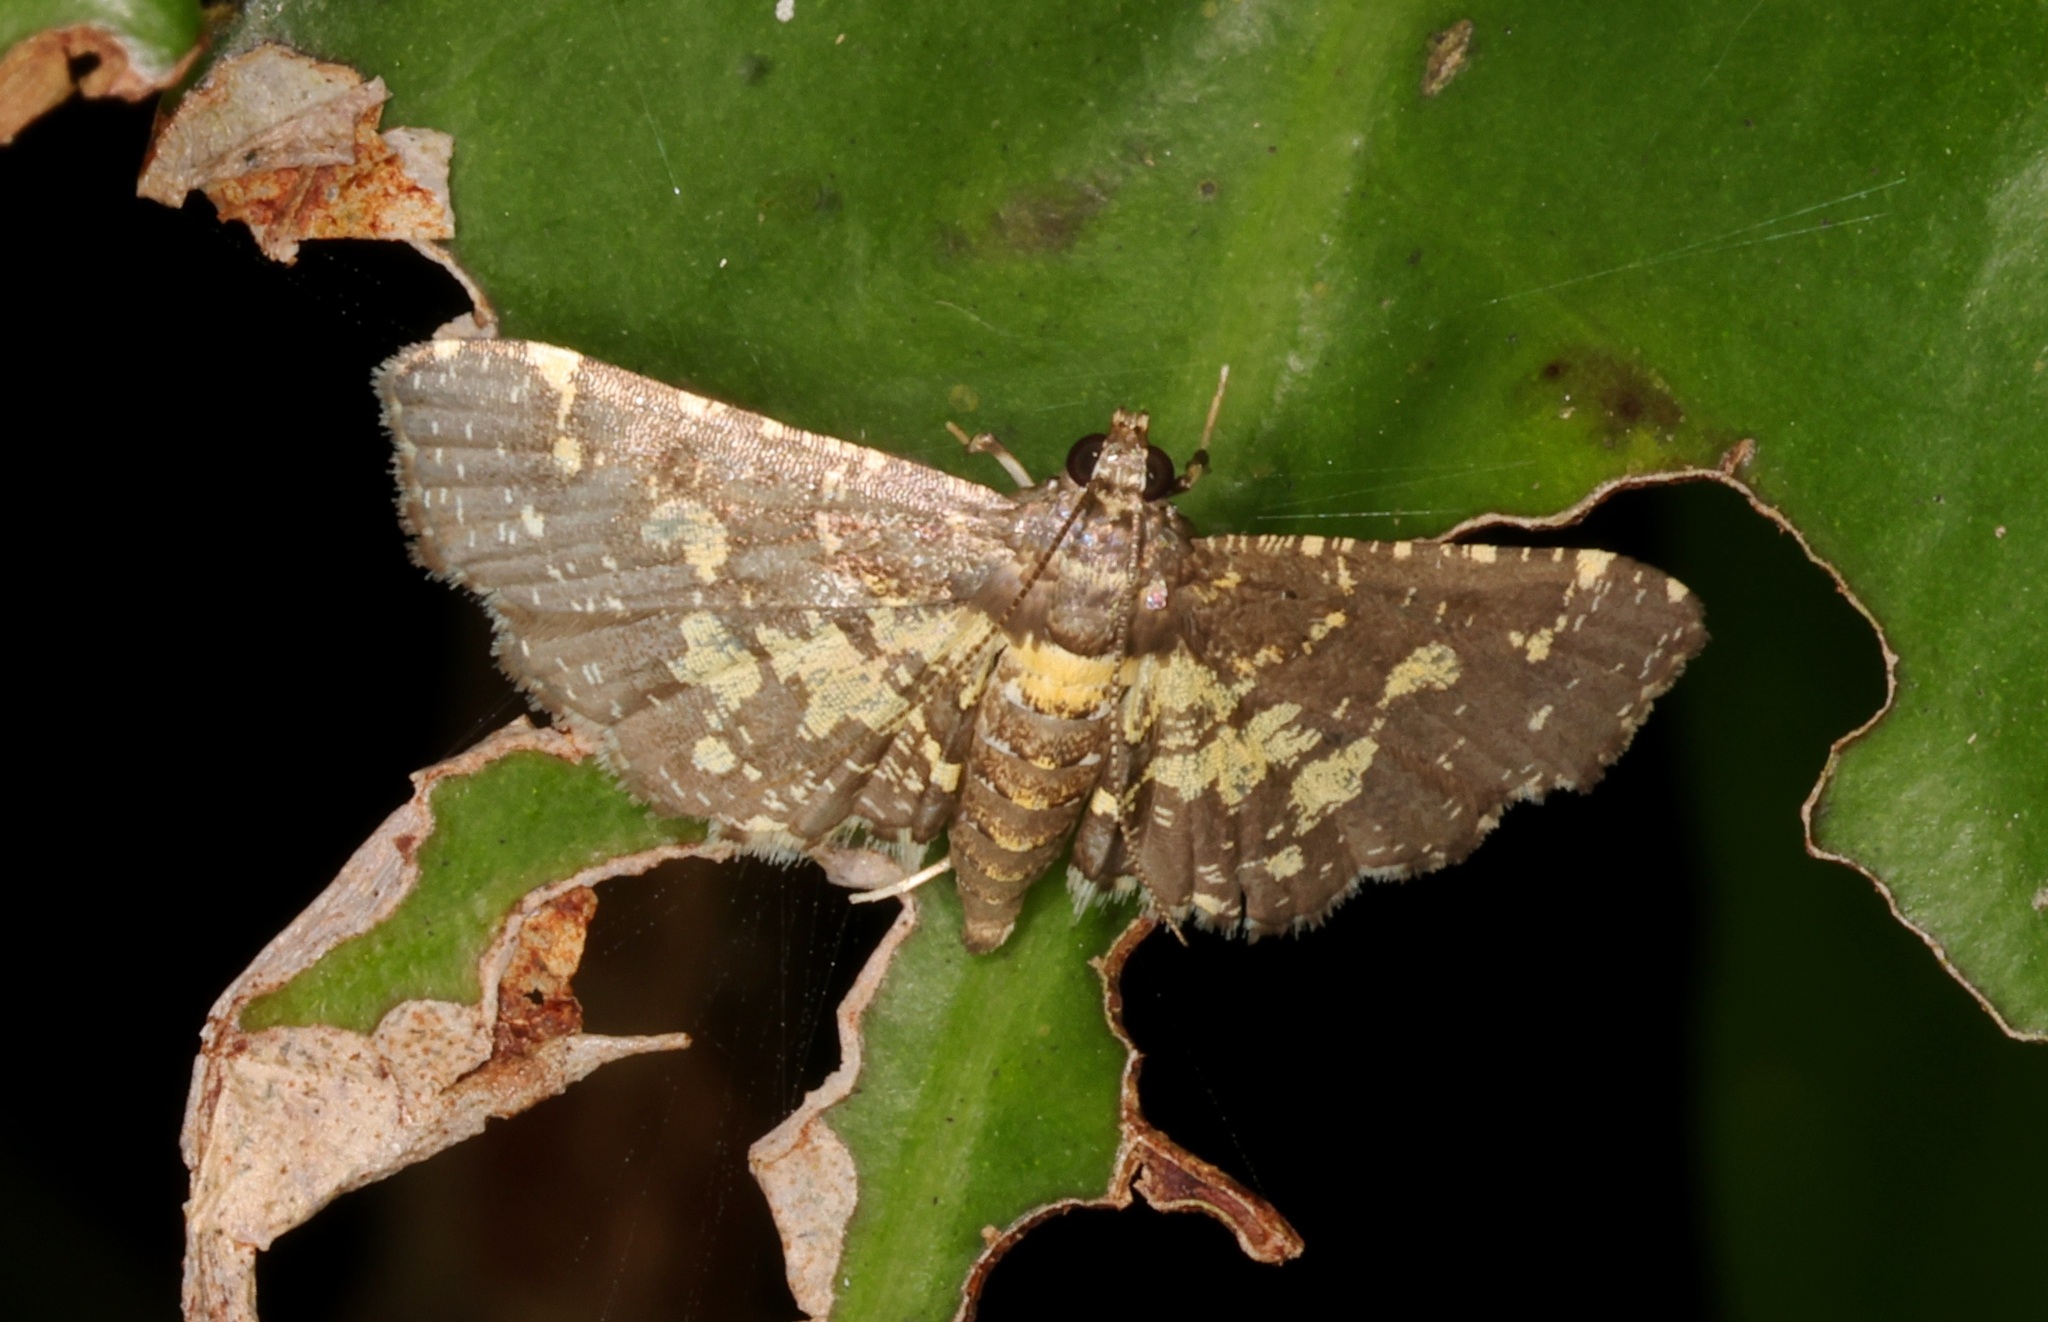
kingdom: Animalia
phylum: Arthropoda
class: Insecta
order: Lepidoptera
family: Crambidae
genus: Eurrhyparodes
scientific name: Eurrhyparodes bracteolalis
